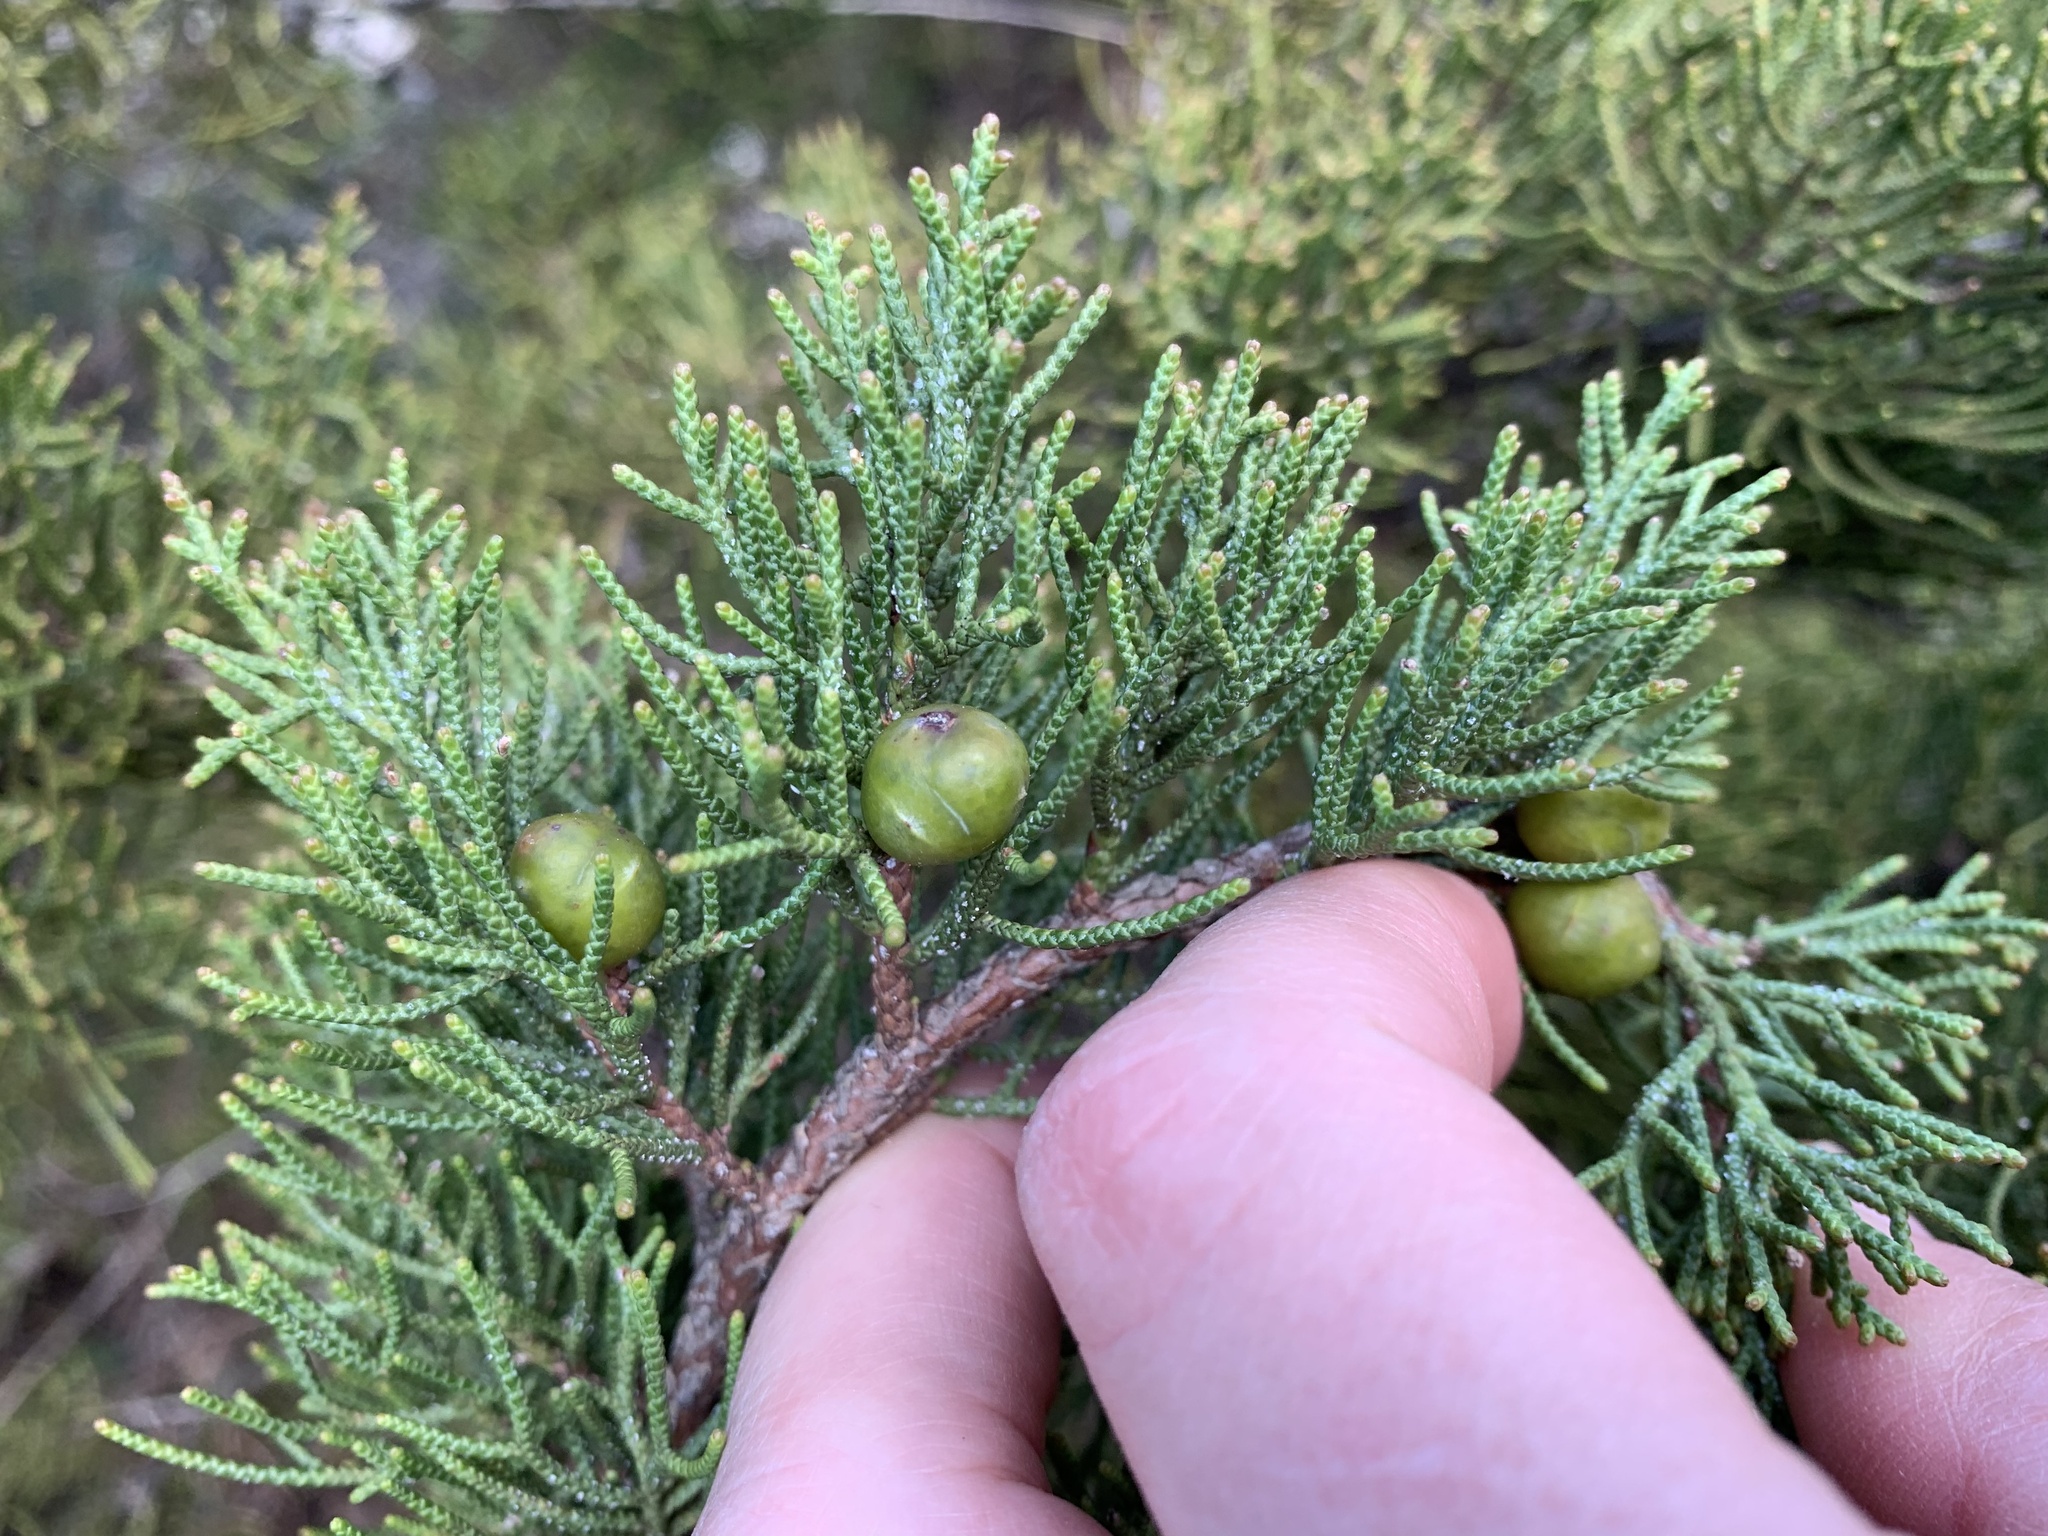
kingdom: Plantae
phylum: Tracheophyta
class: Pinopsida
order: Pinales
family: Cupressaceae
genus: Juniperus
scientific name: Juniperus phoenicea
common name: Phoenician juniper
